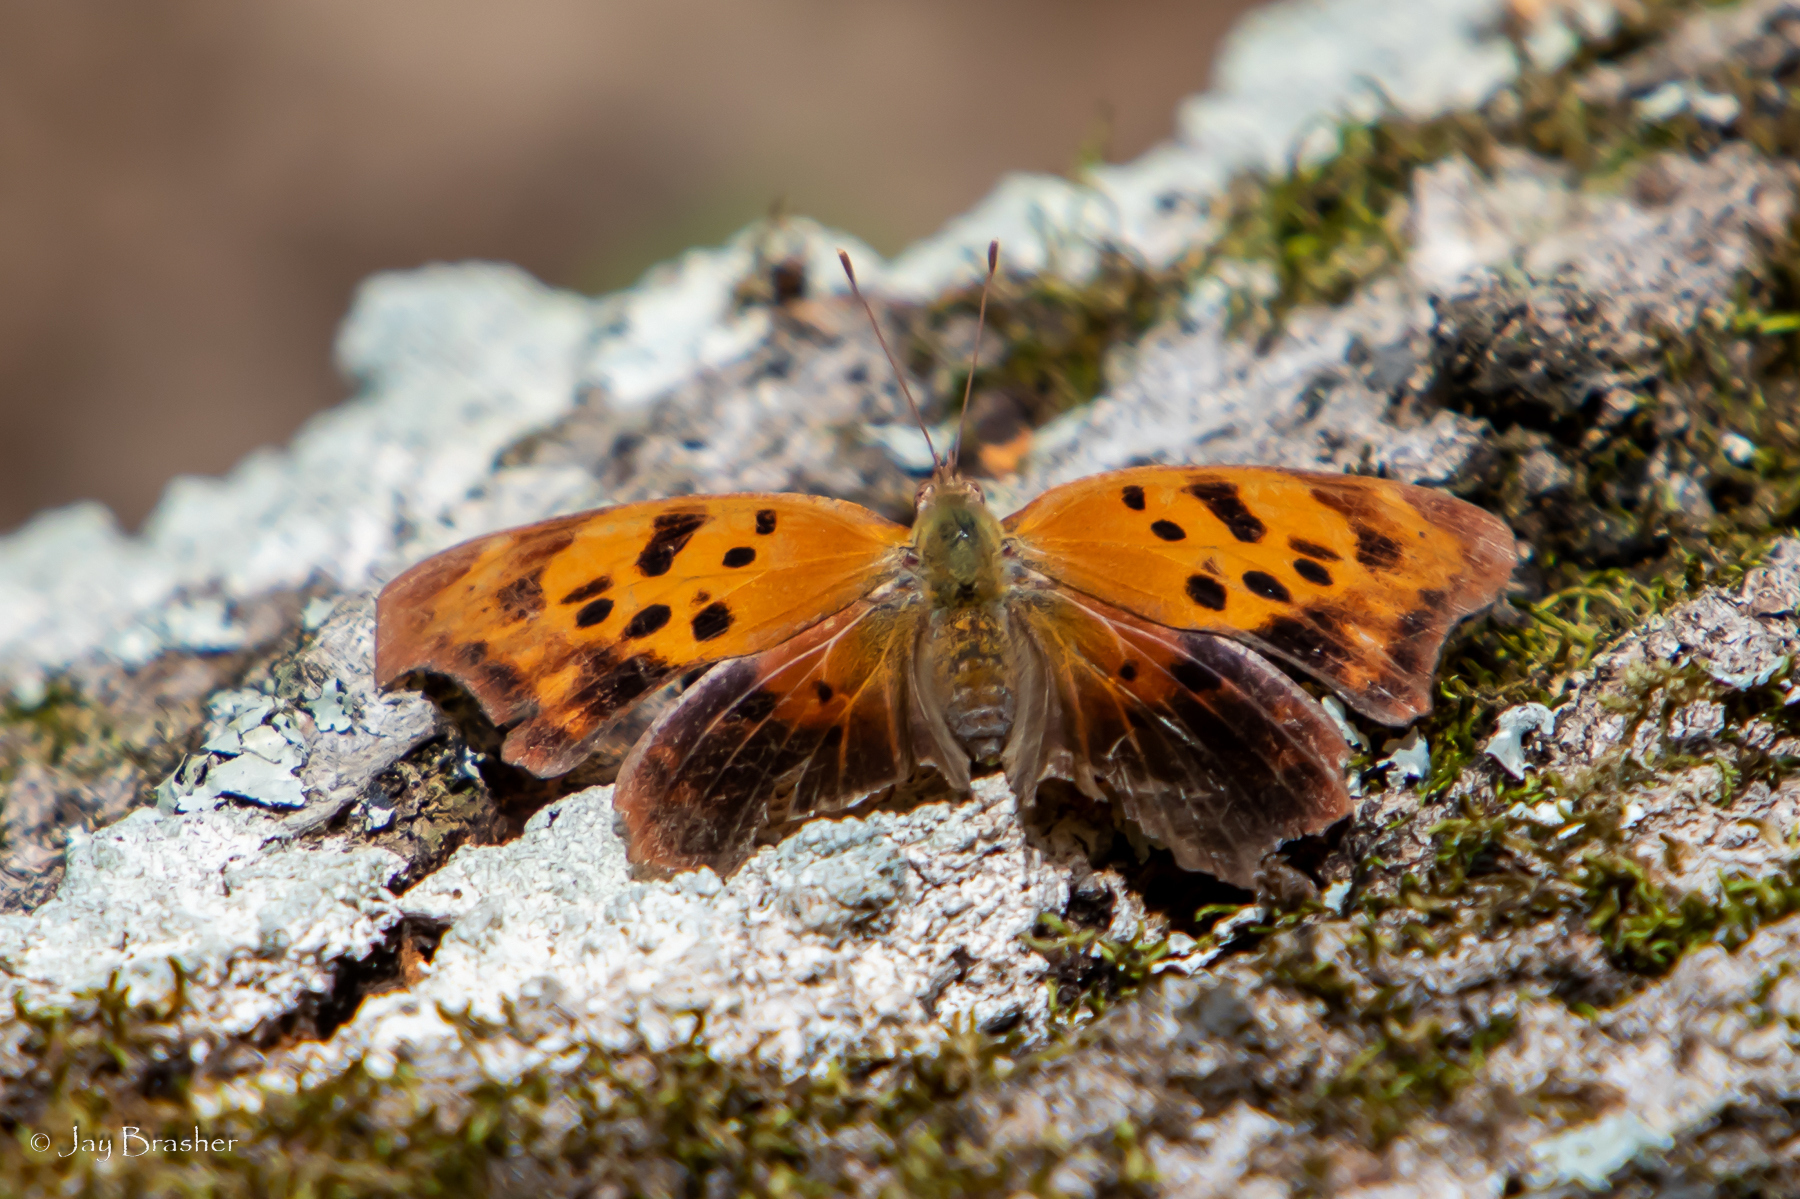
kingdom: Animalia
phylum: Arthropoda
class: Insecta
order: Lepidoptera
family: Nymphalidae
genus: Polygonia
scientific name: Polygonia interrogationis
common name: Question mark
